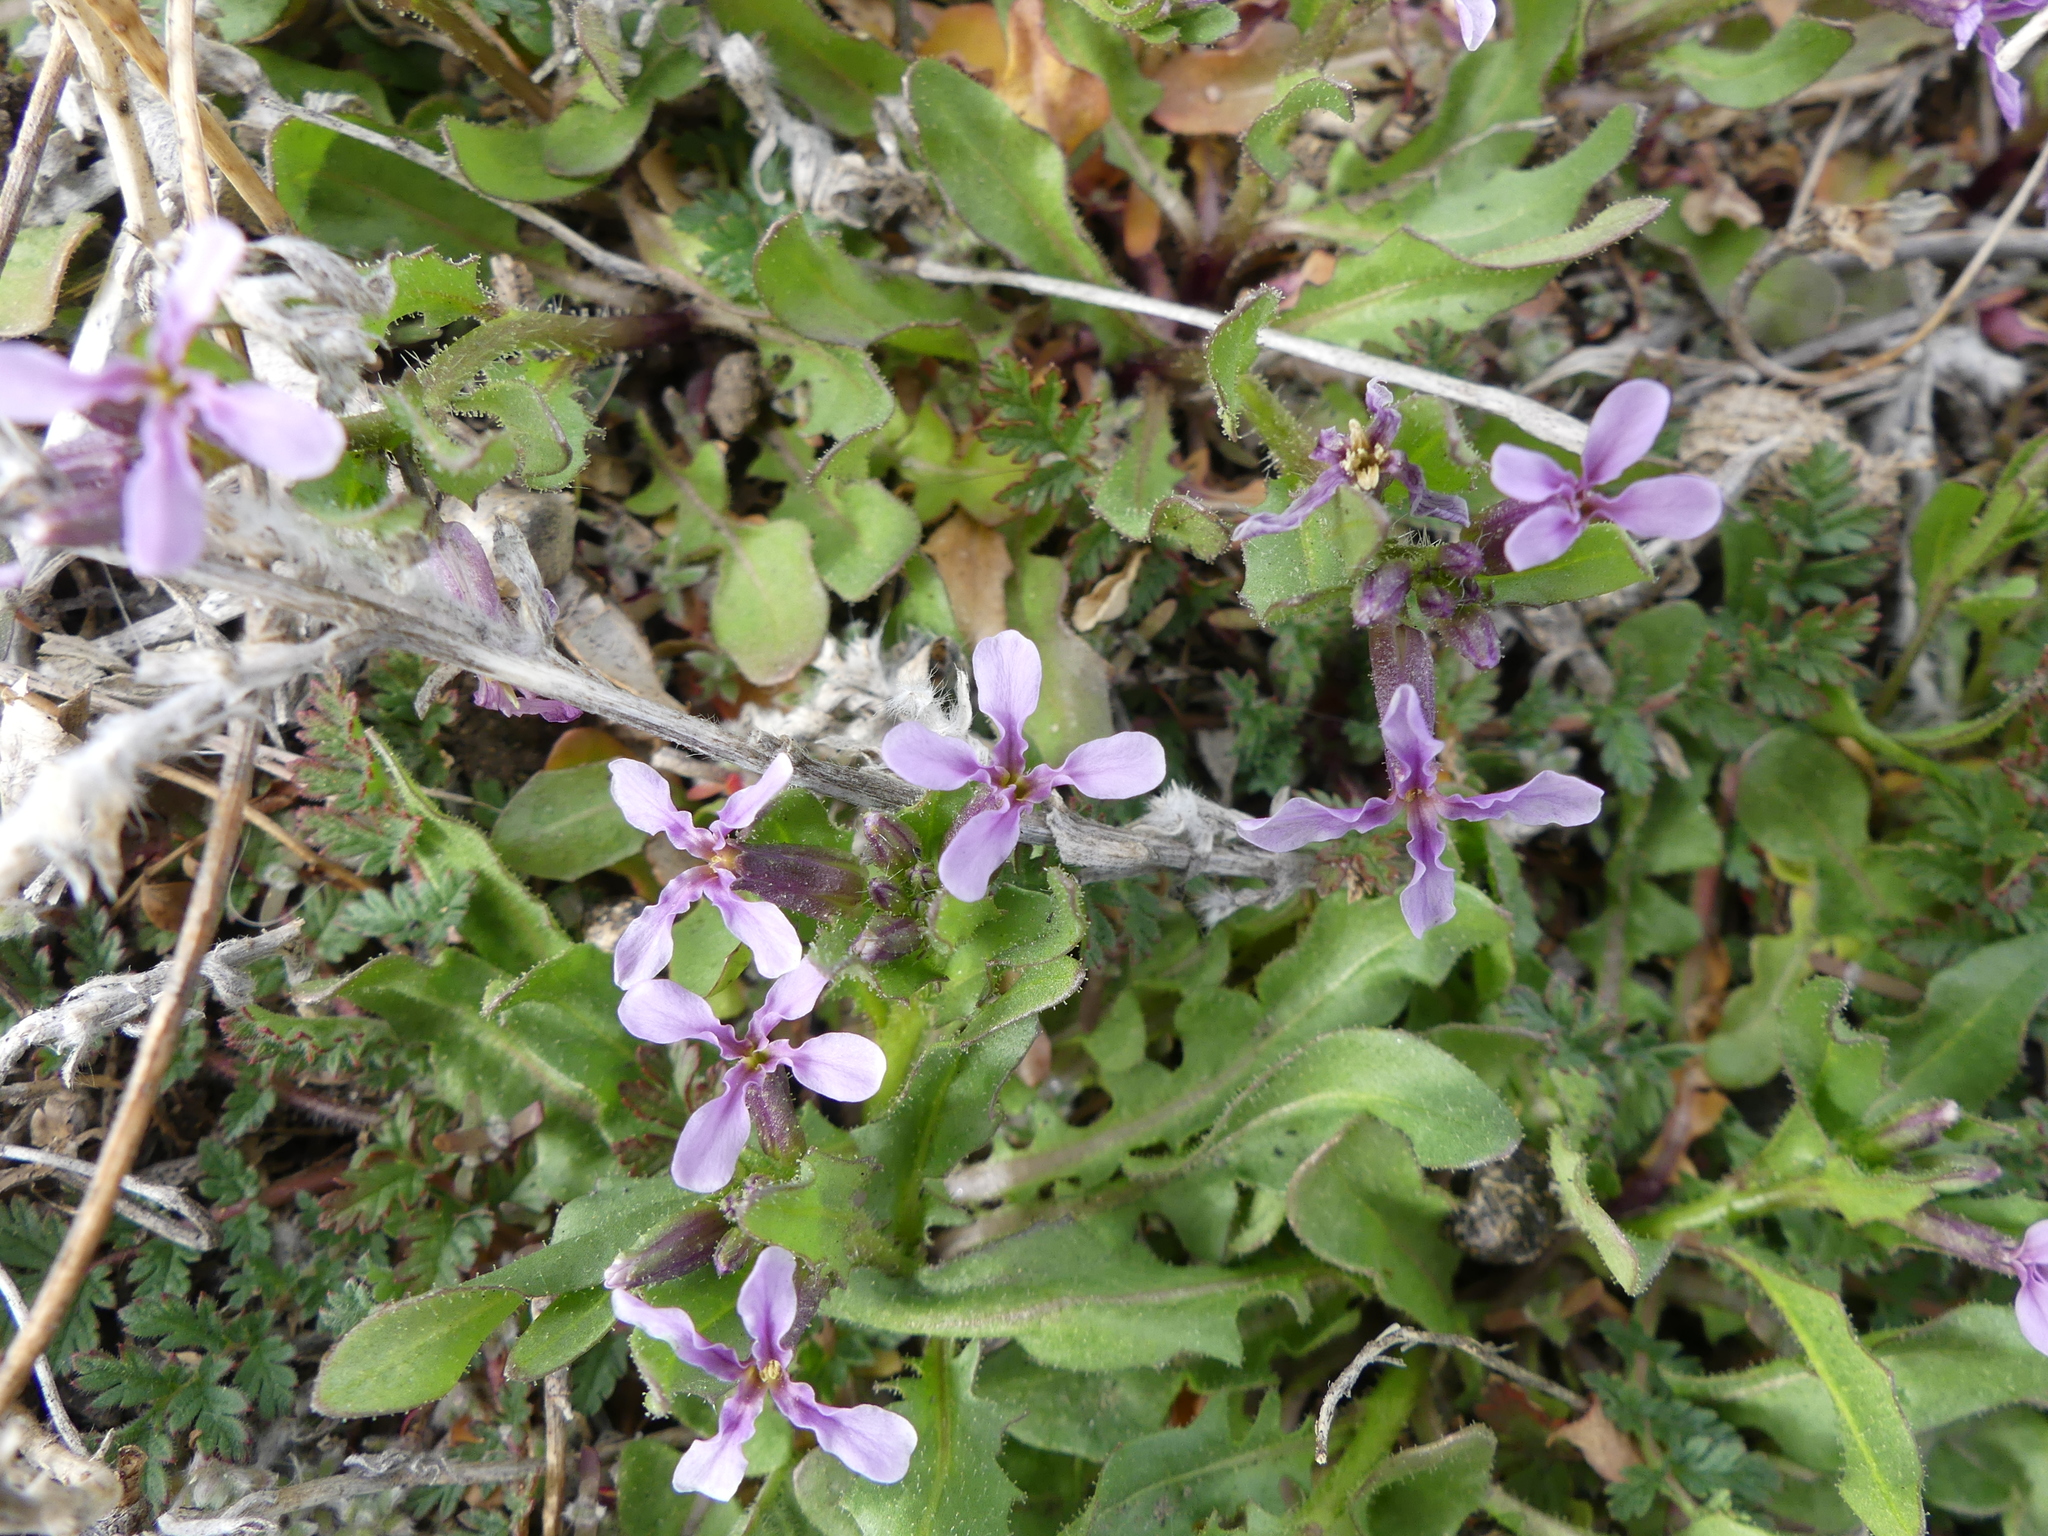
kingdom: Plantae
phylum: Tracheophyta
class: Magnoliopsida
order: Brassicales
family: Brassicaceae
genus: Chorispora
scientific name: Chorispora tenella
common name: Crossflower
